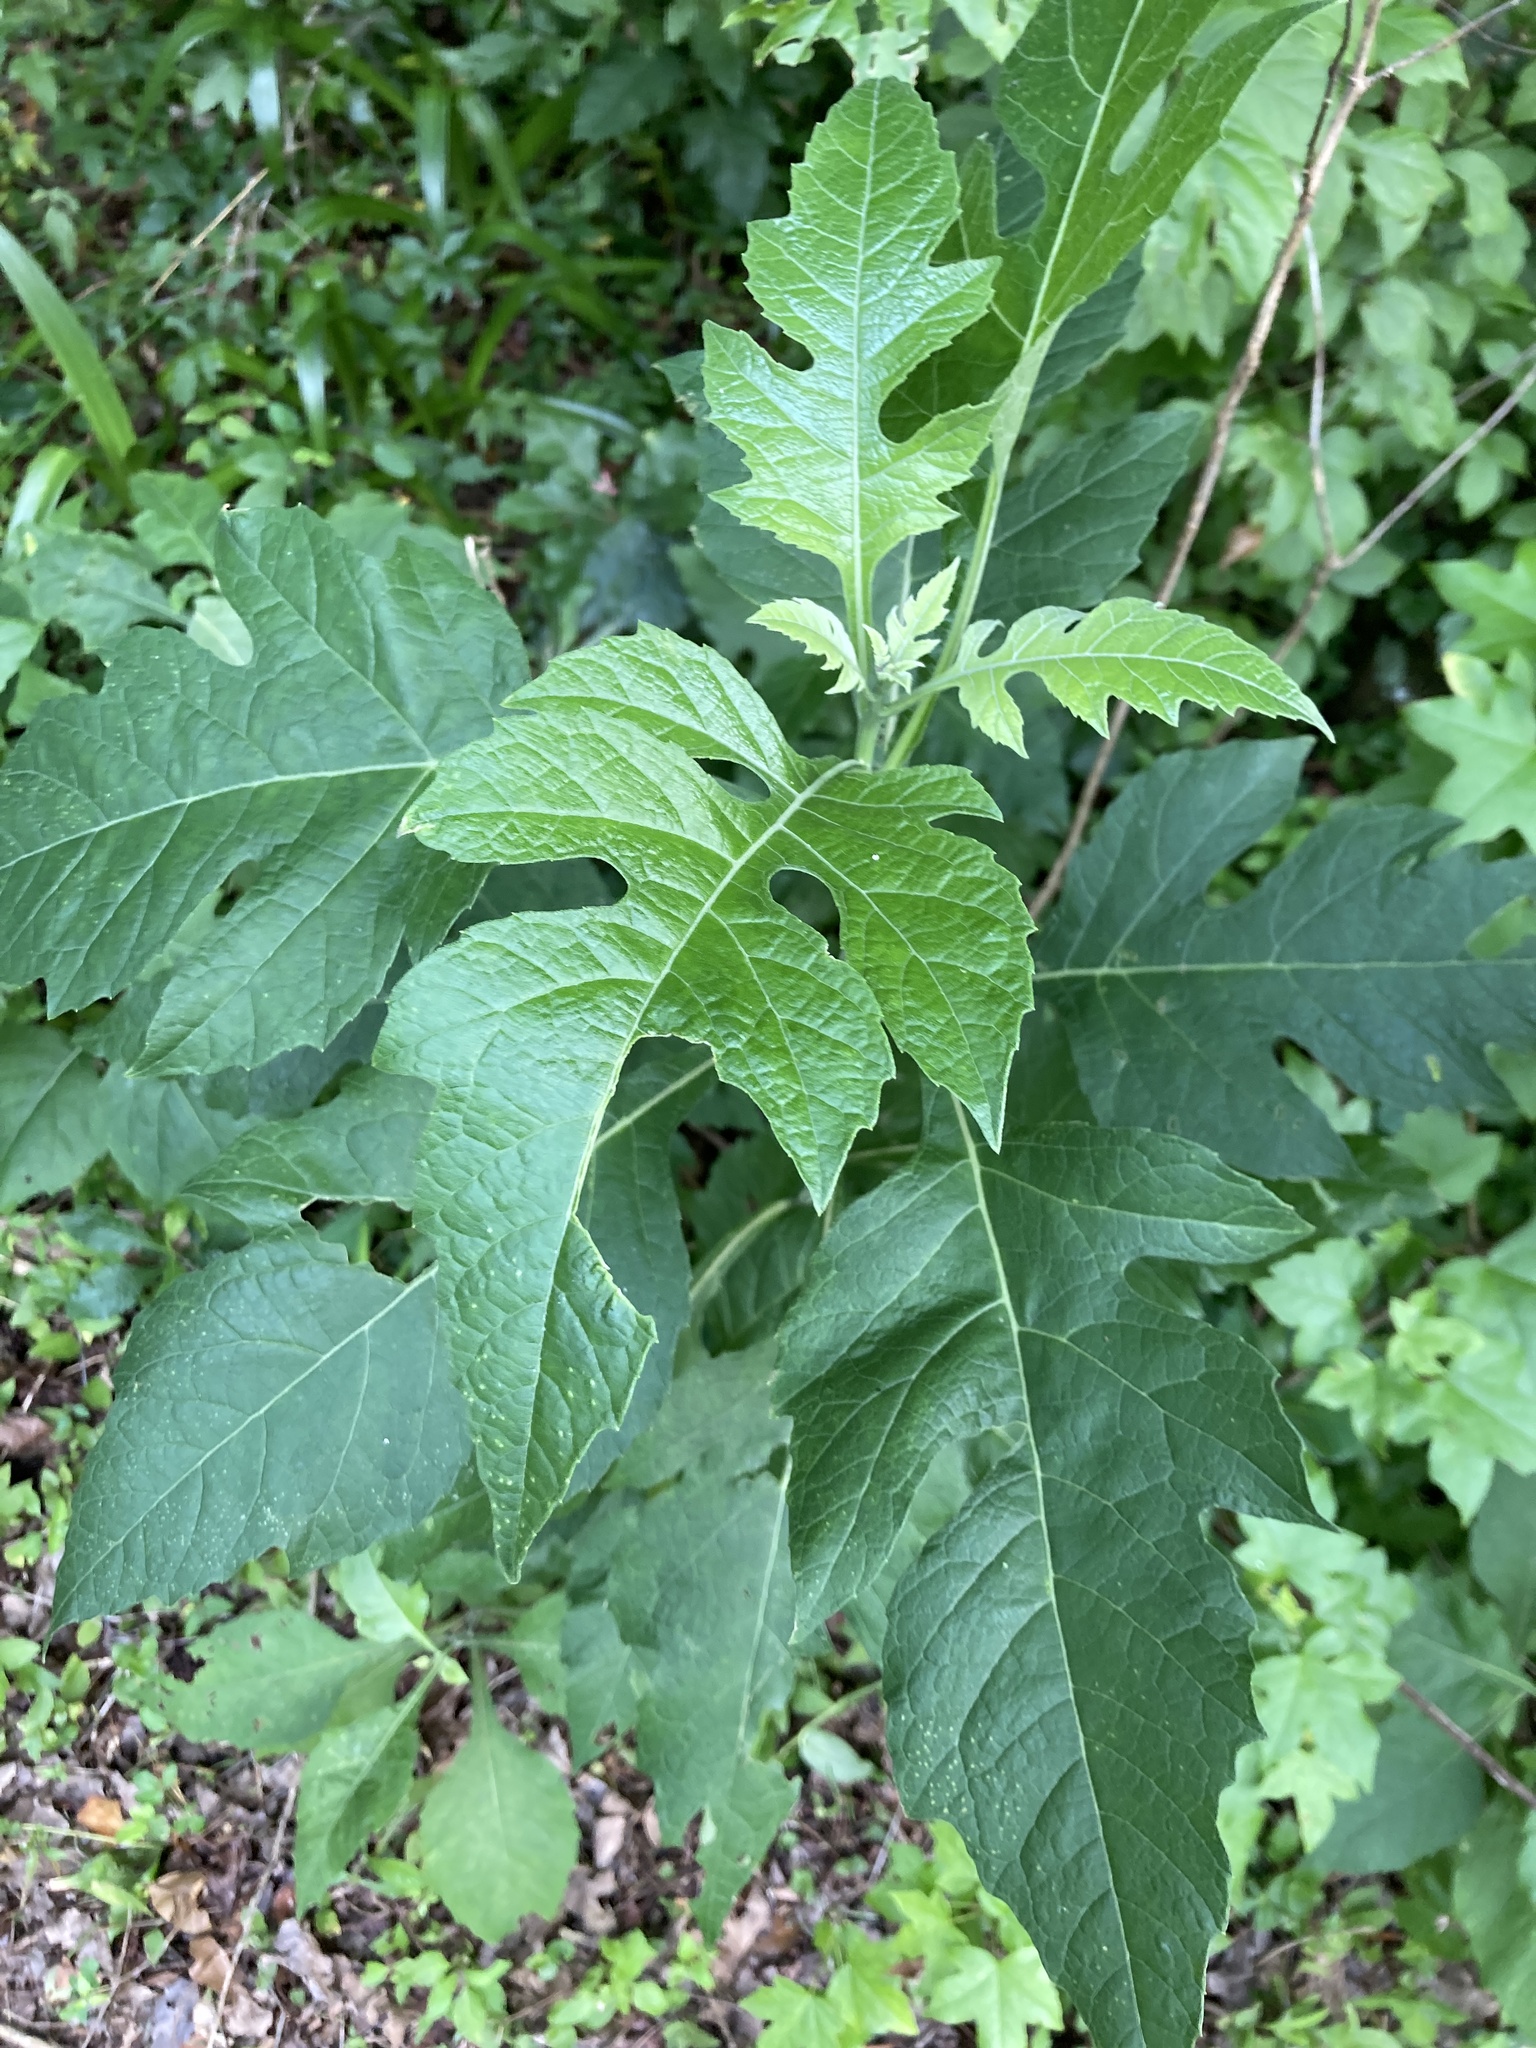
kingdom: Plantae
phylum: Tracheophyta
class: Magnoliopsida
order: Asterales
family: Asteraceae
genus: Verbesina
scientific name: Verbesina virginica
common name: Frostweed
